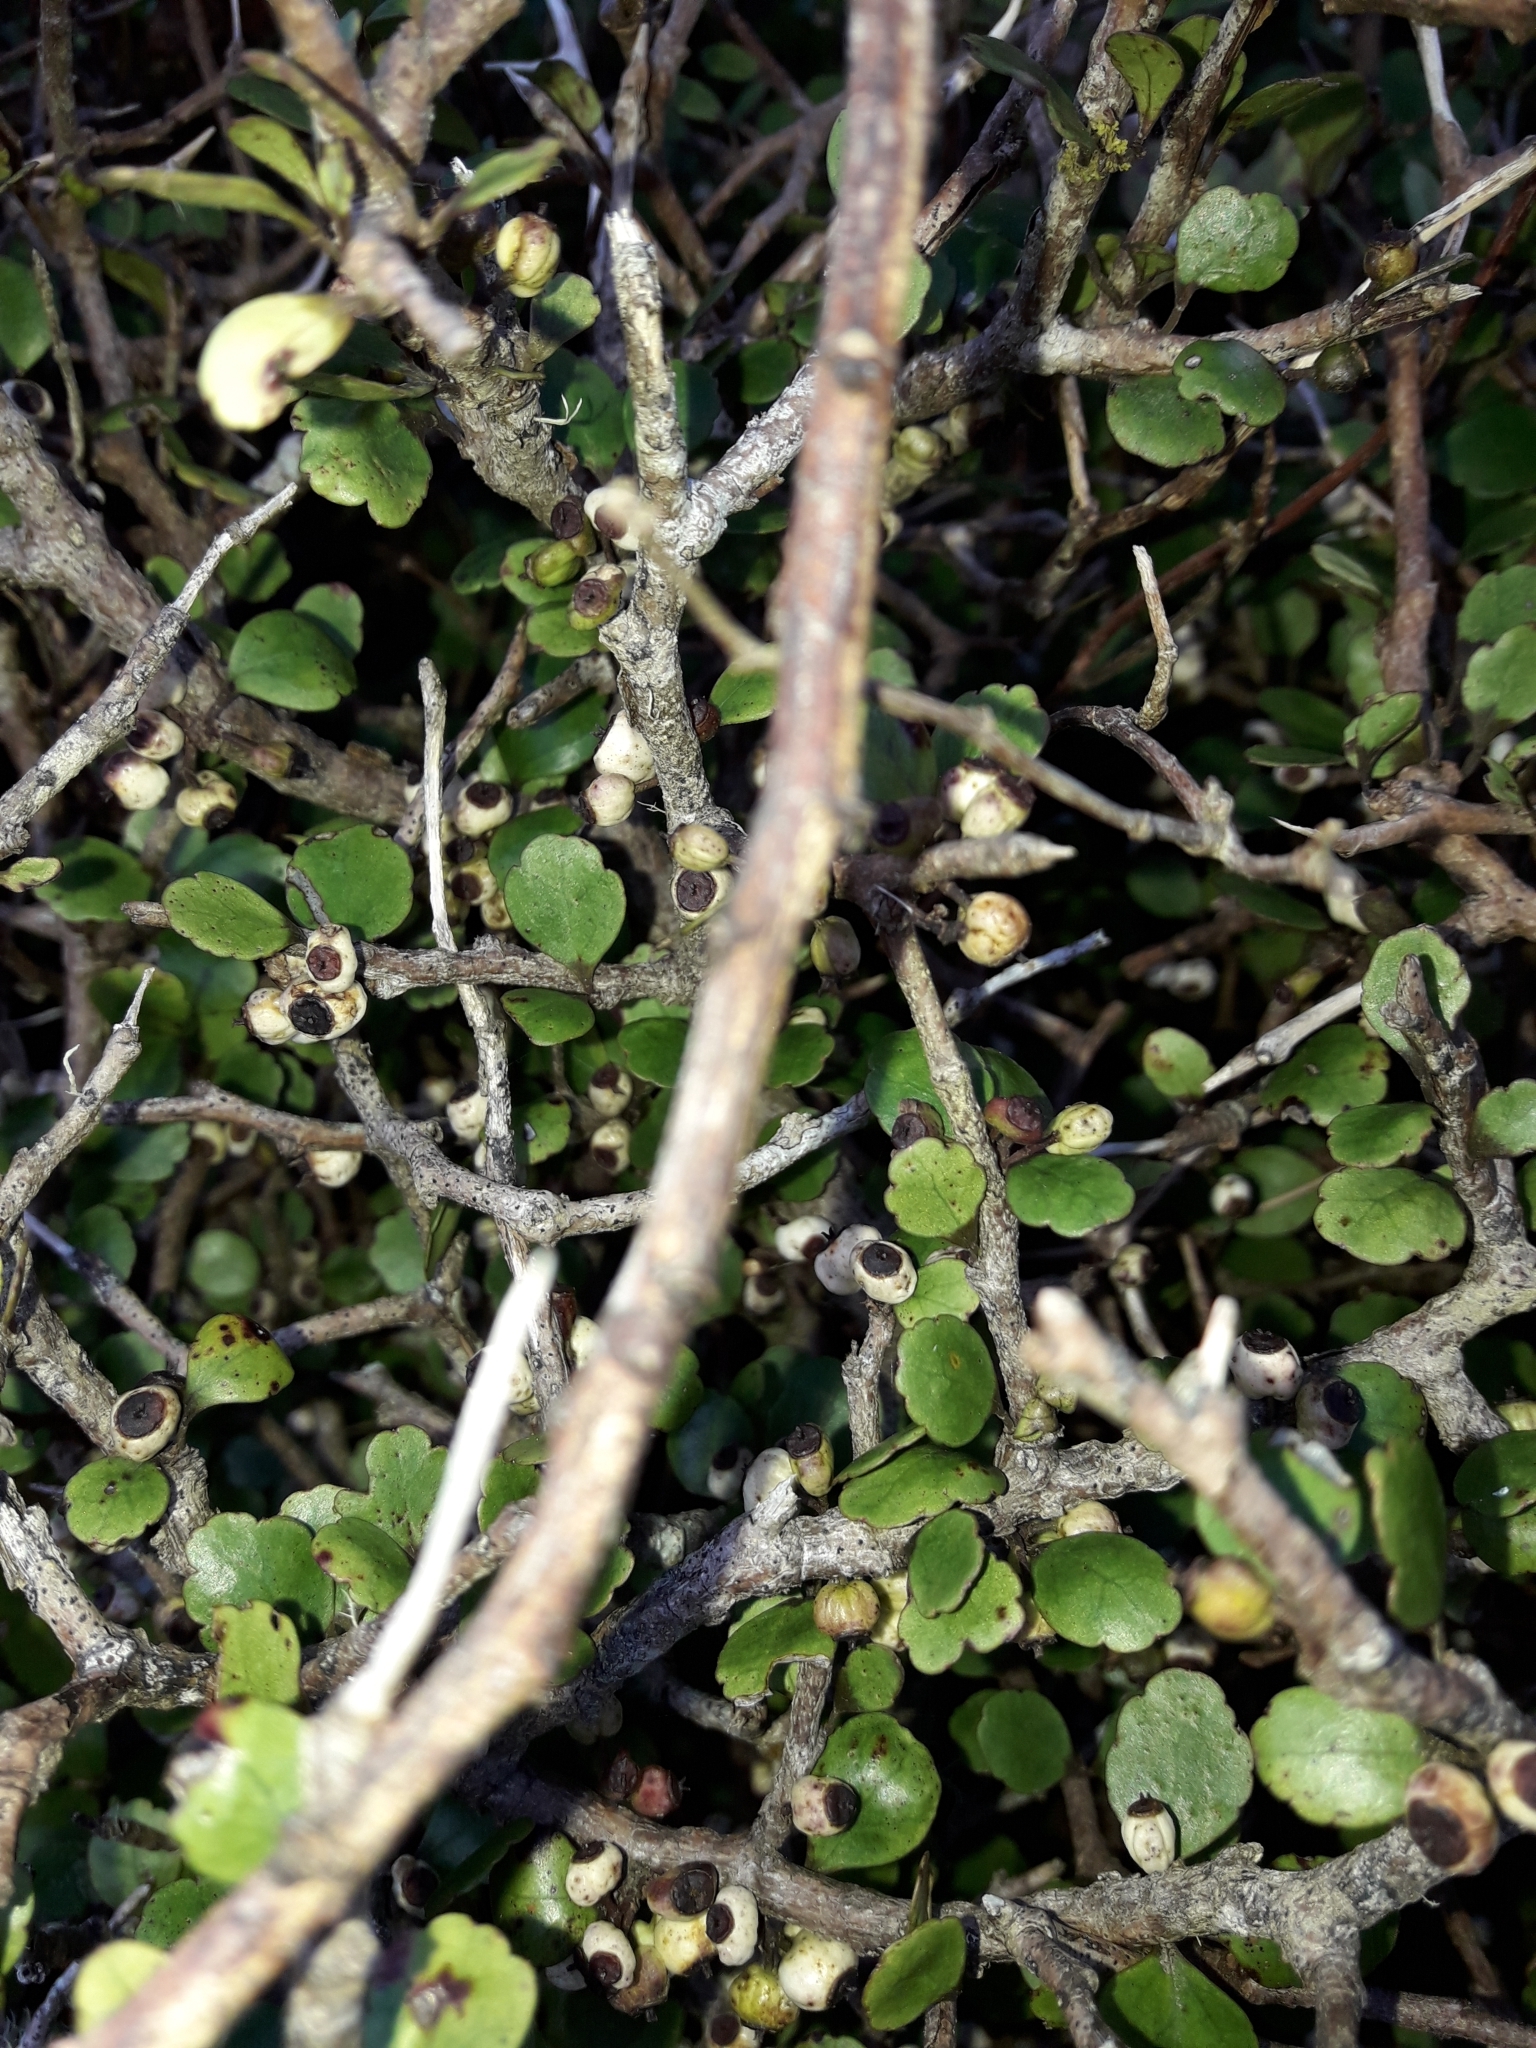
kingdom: Plantae
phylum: Tracheophyta
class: Magnoliopsida
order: Apiales
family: Araliaceae
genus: Raukaua
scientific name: Raukaua anomalus
